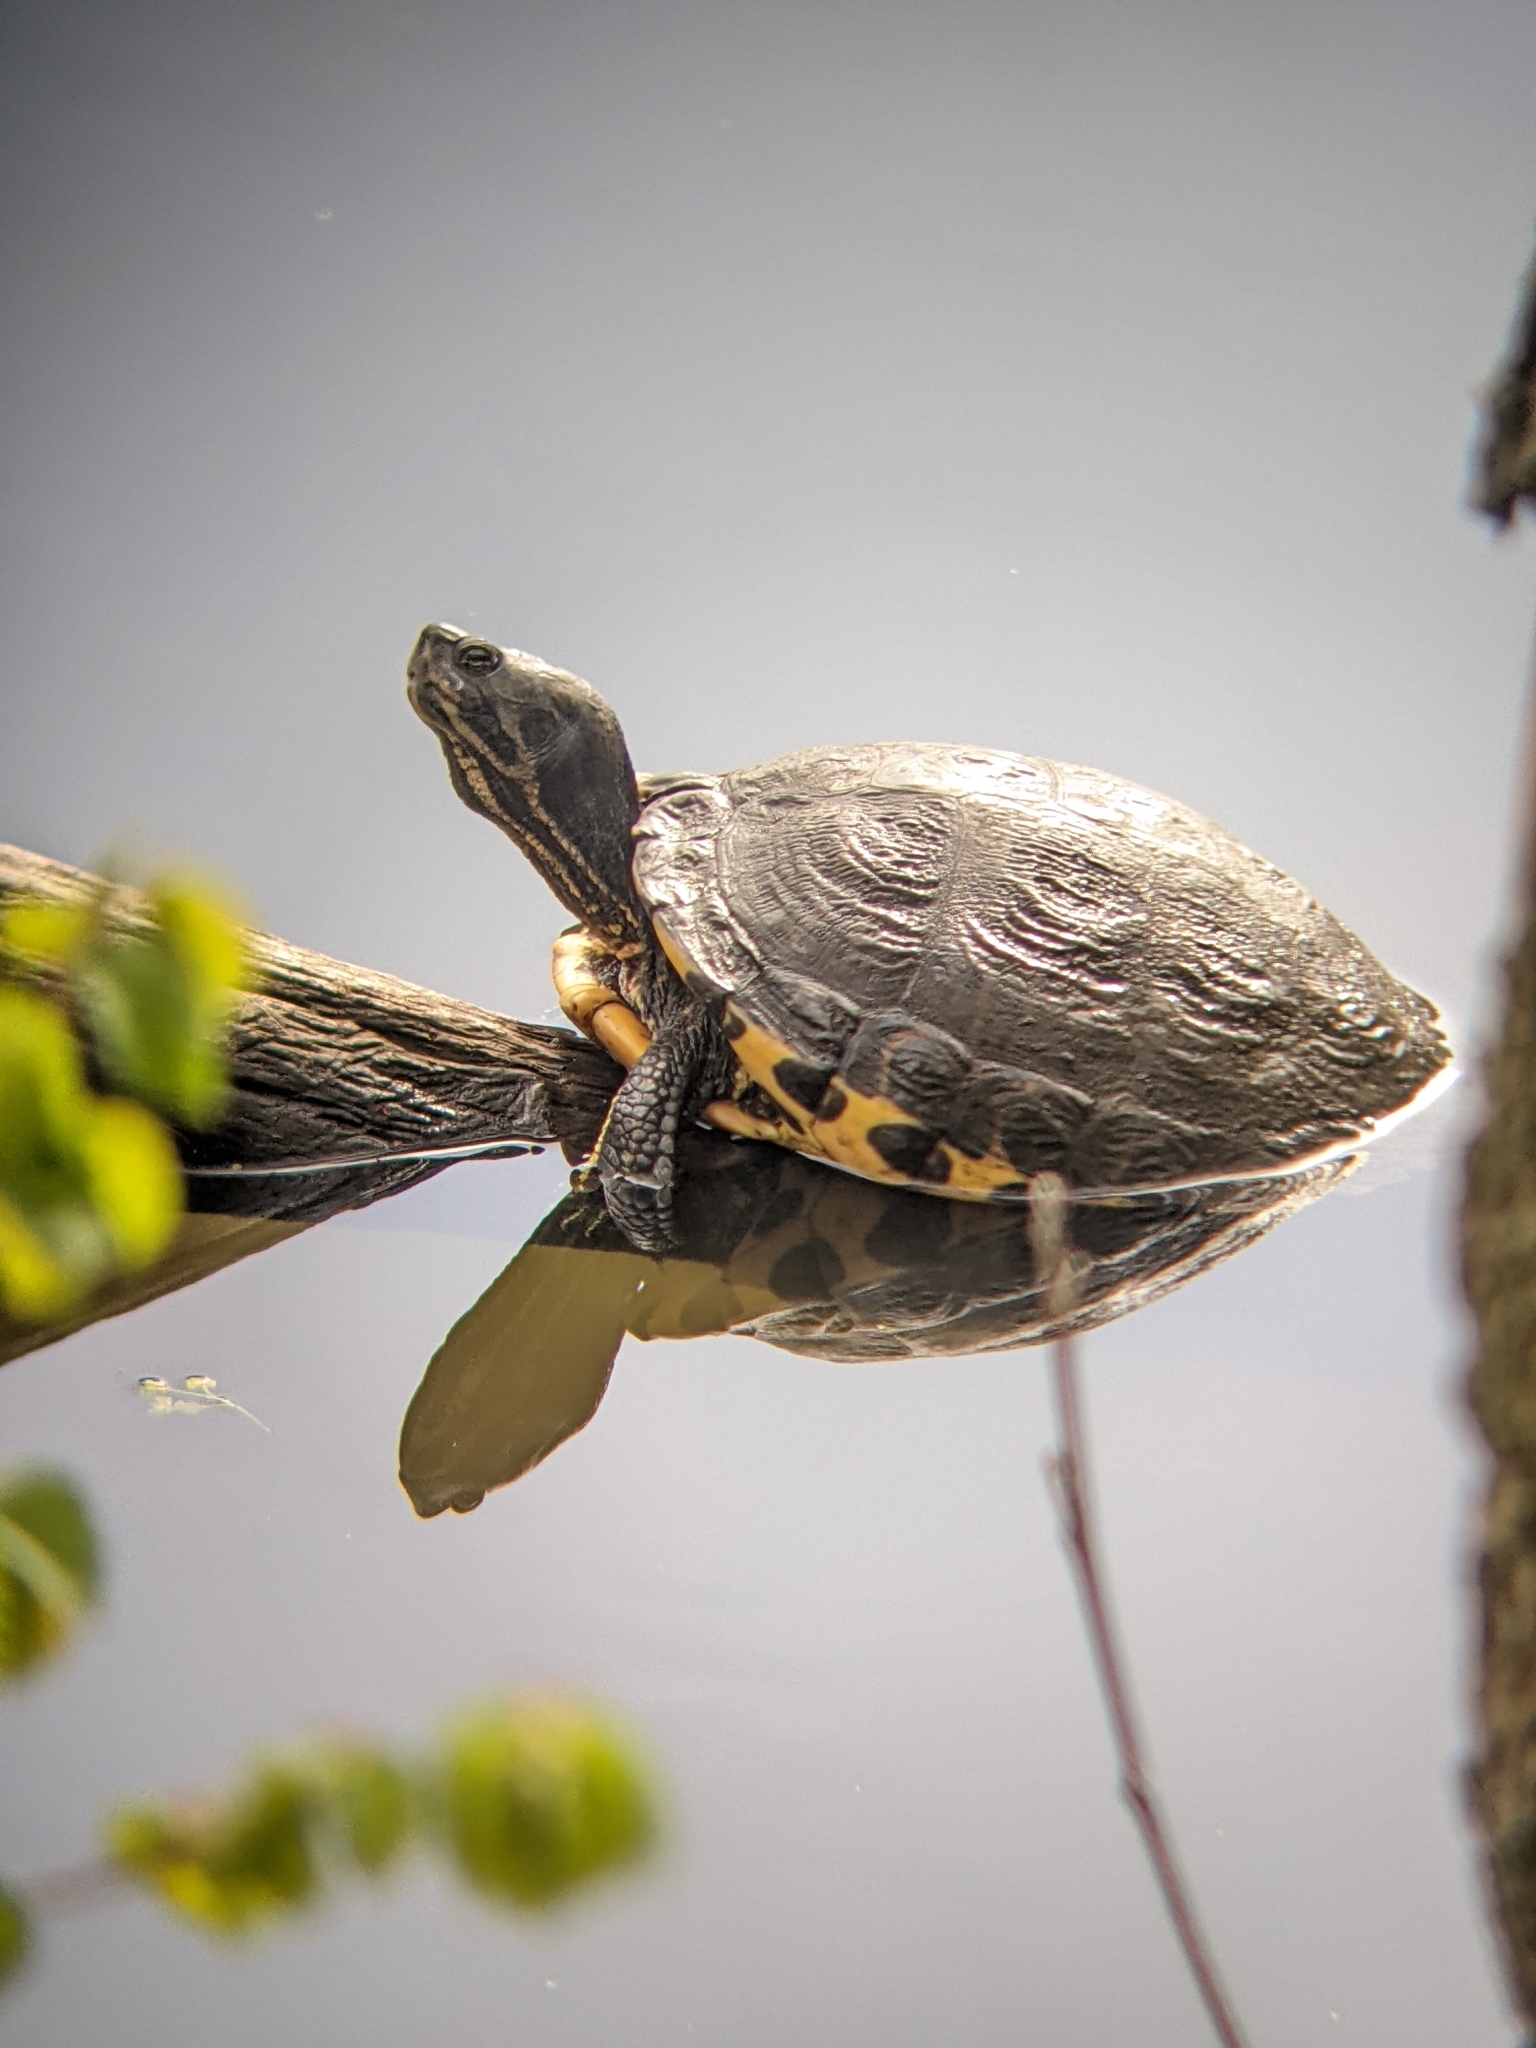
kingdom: Animalia
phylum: Chordata
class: Testudines
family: Emydidae
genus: Trachemys
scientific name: Trachemys scripta
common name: Slider
